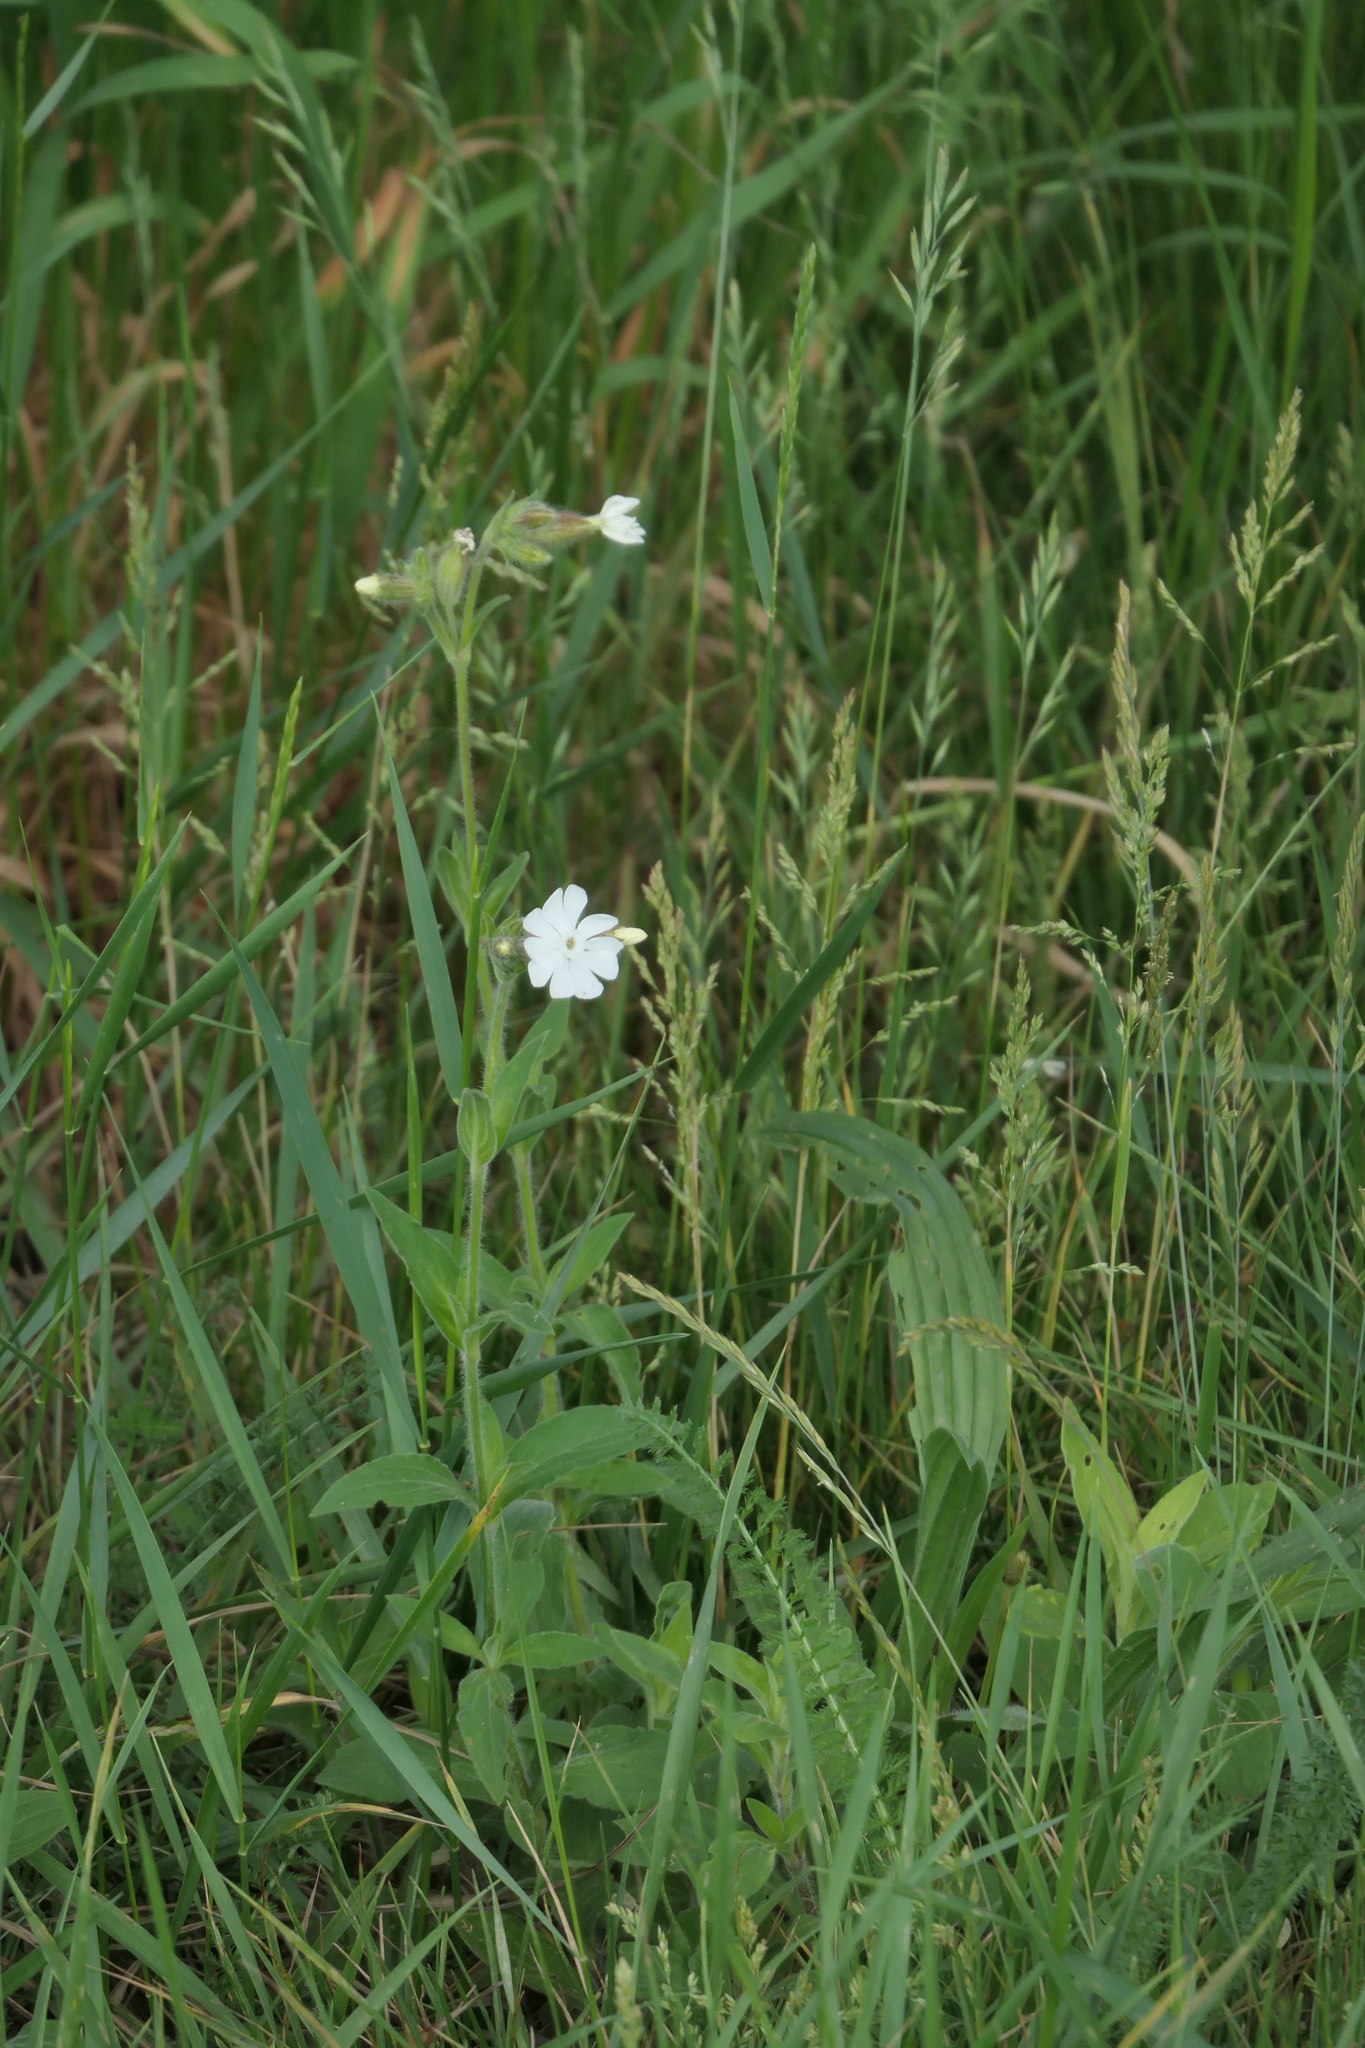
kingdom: Plantae
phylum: Tracheophyta
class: Magnoliopsida
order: Caryophyllales
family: Caryophyllaceae
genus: Silene
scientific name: Silene latifolia
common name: White campion
